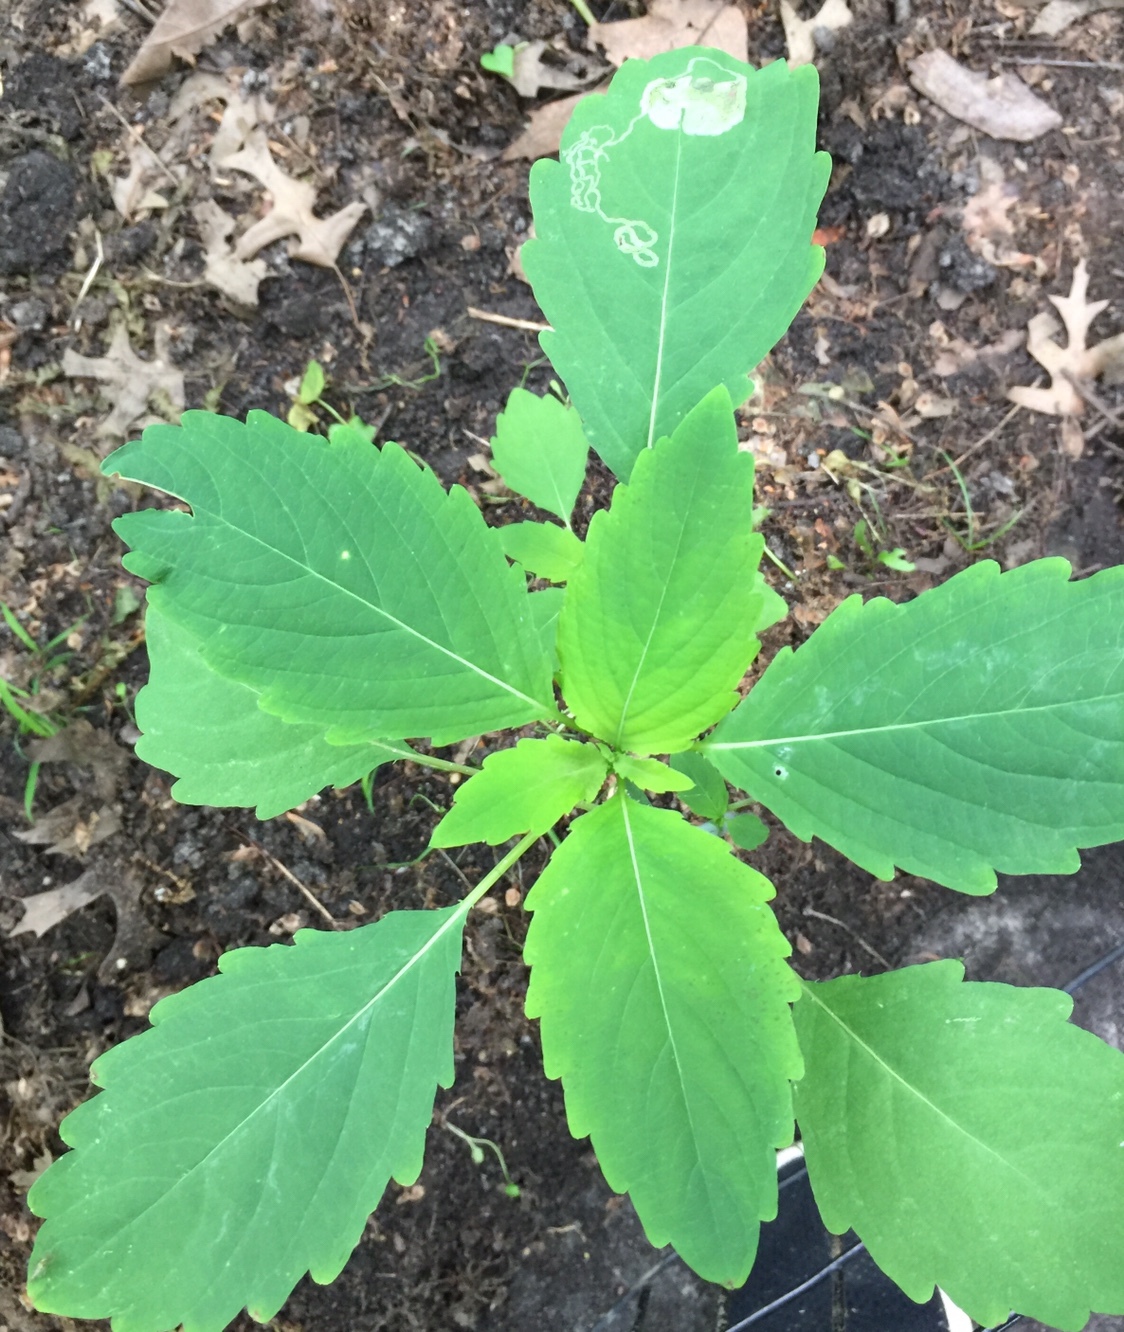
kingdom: Plantae
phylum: Tracheophyta
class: Magnoliopsida
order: Ericales
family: Balsaminaceae
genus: Impatiens
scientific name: Impatiens capensis
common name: Orange balsam
